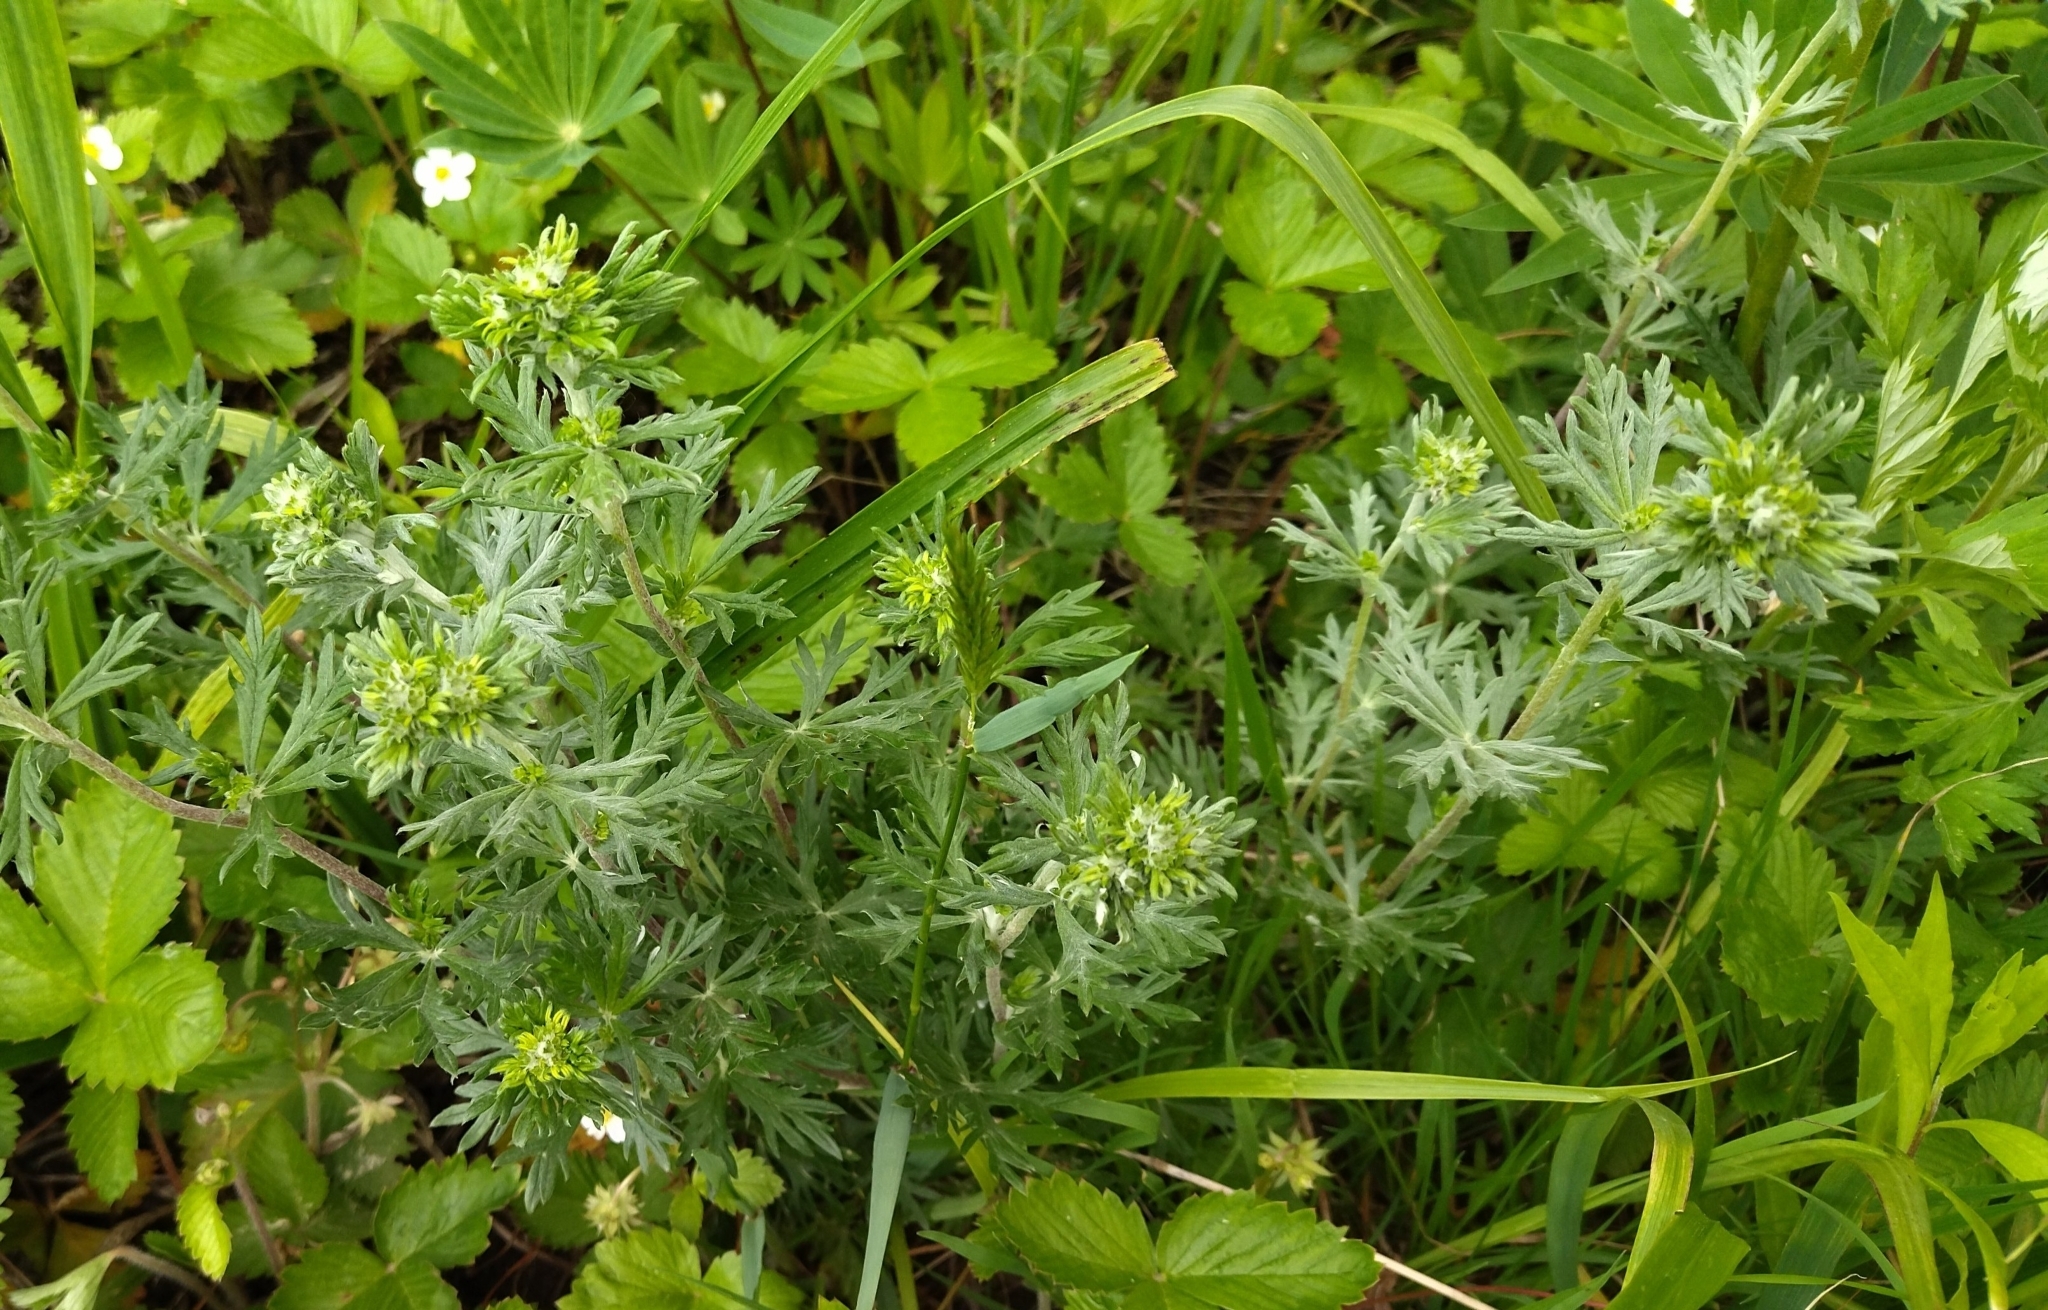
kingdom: Plantae
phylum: Tracheophyta
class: Magnoliopsida
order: Rosales
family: Rosaceae
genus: Potentilla
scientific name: Potentilla argentea
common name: Hoary cinquefoil
